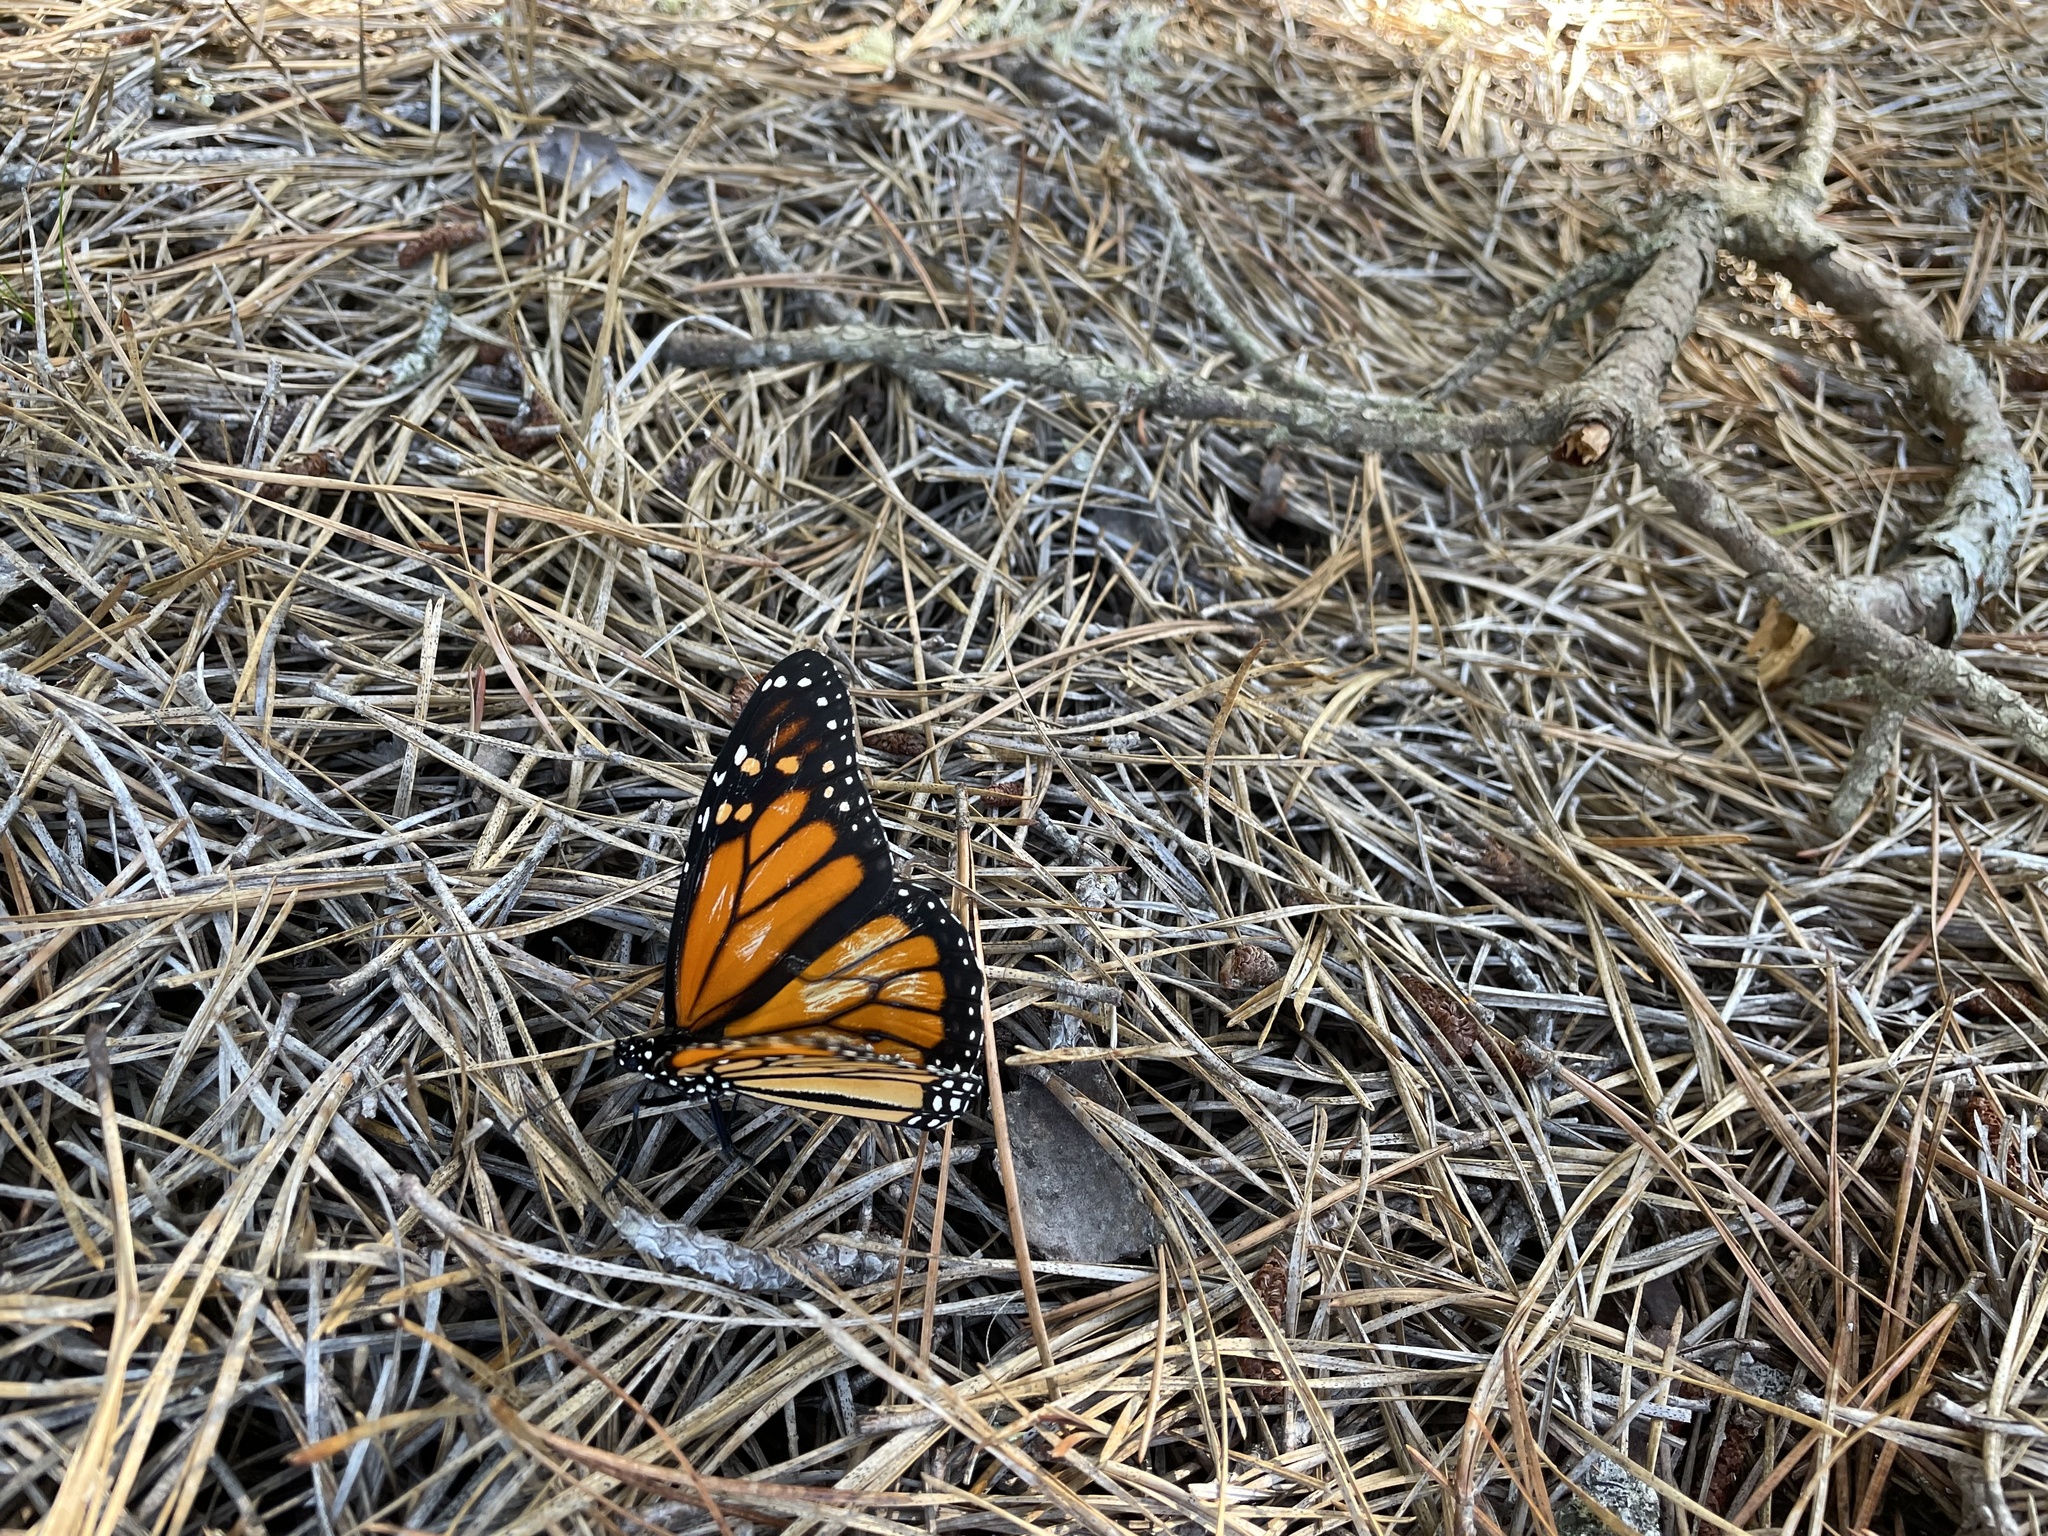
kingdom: Animalia
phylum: Arthropoda
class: Insecta
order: Lepidoptera
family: Nymphalidae
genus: Danaus
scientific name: Danaus plexippus
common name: Monarch
